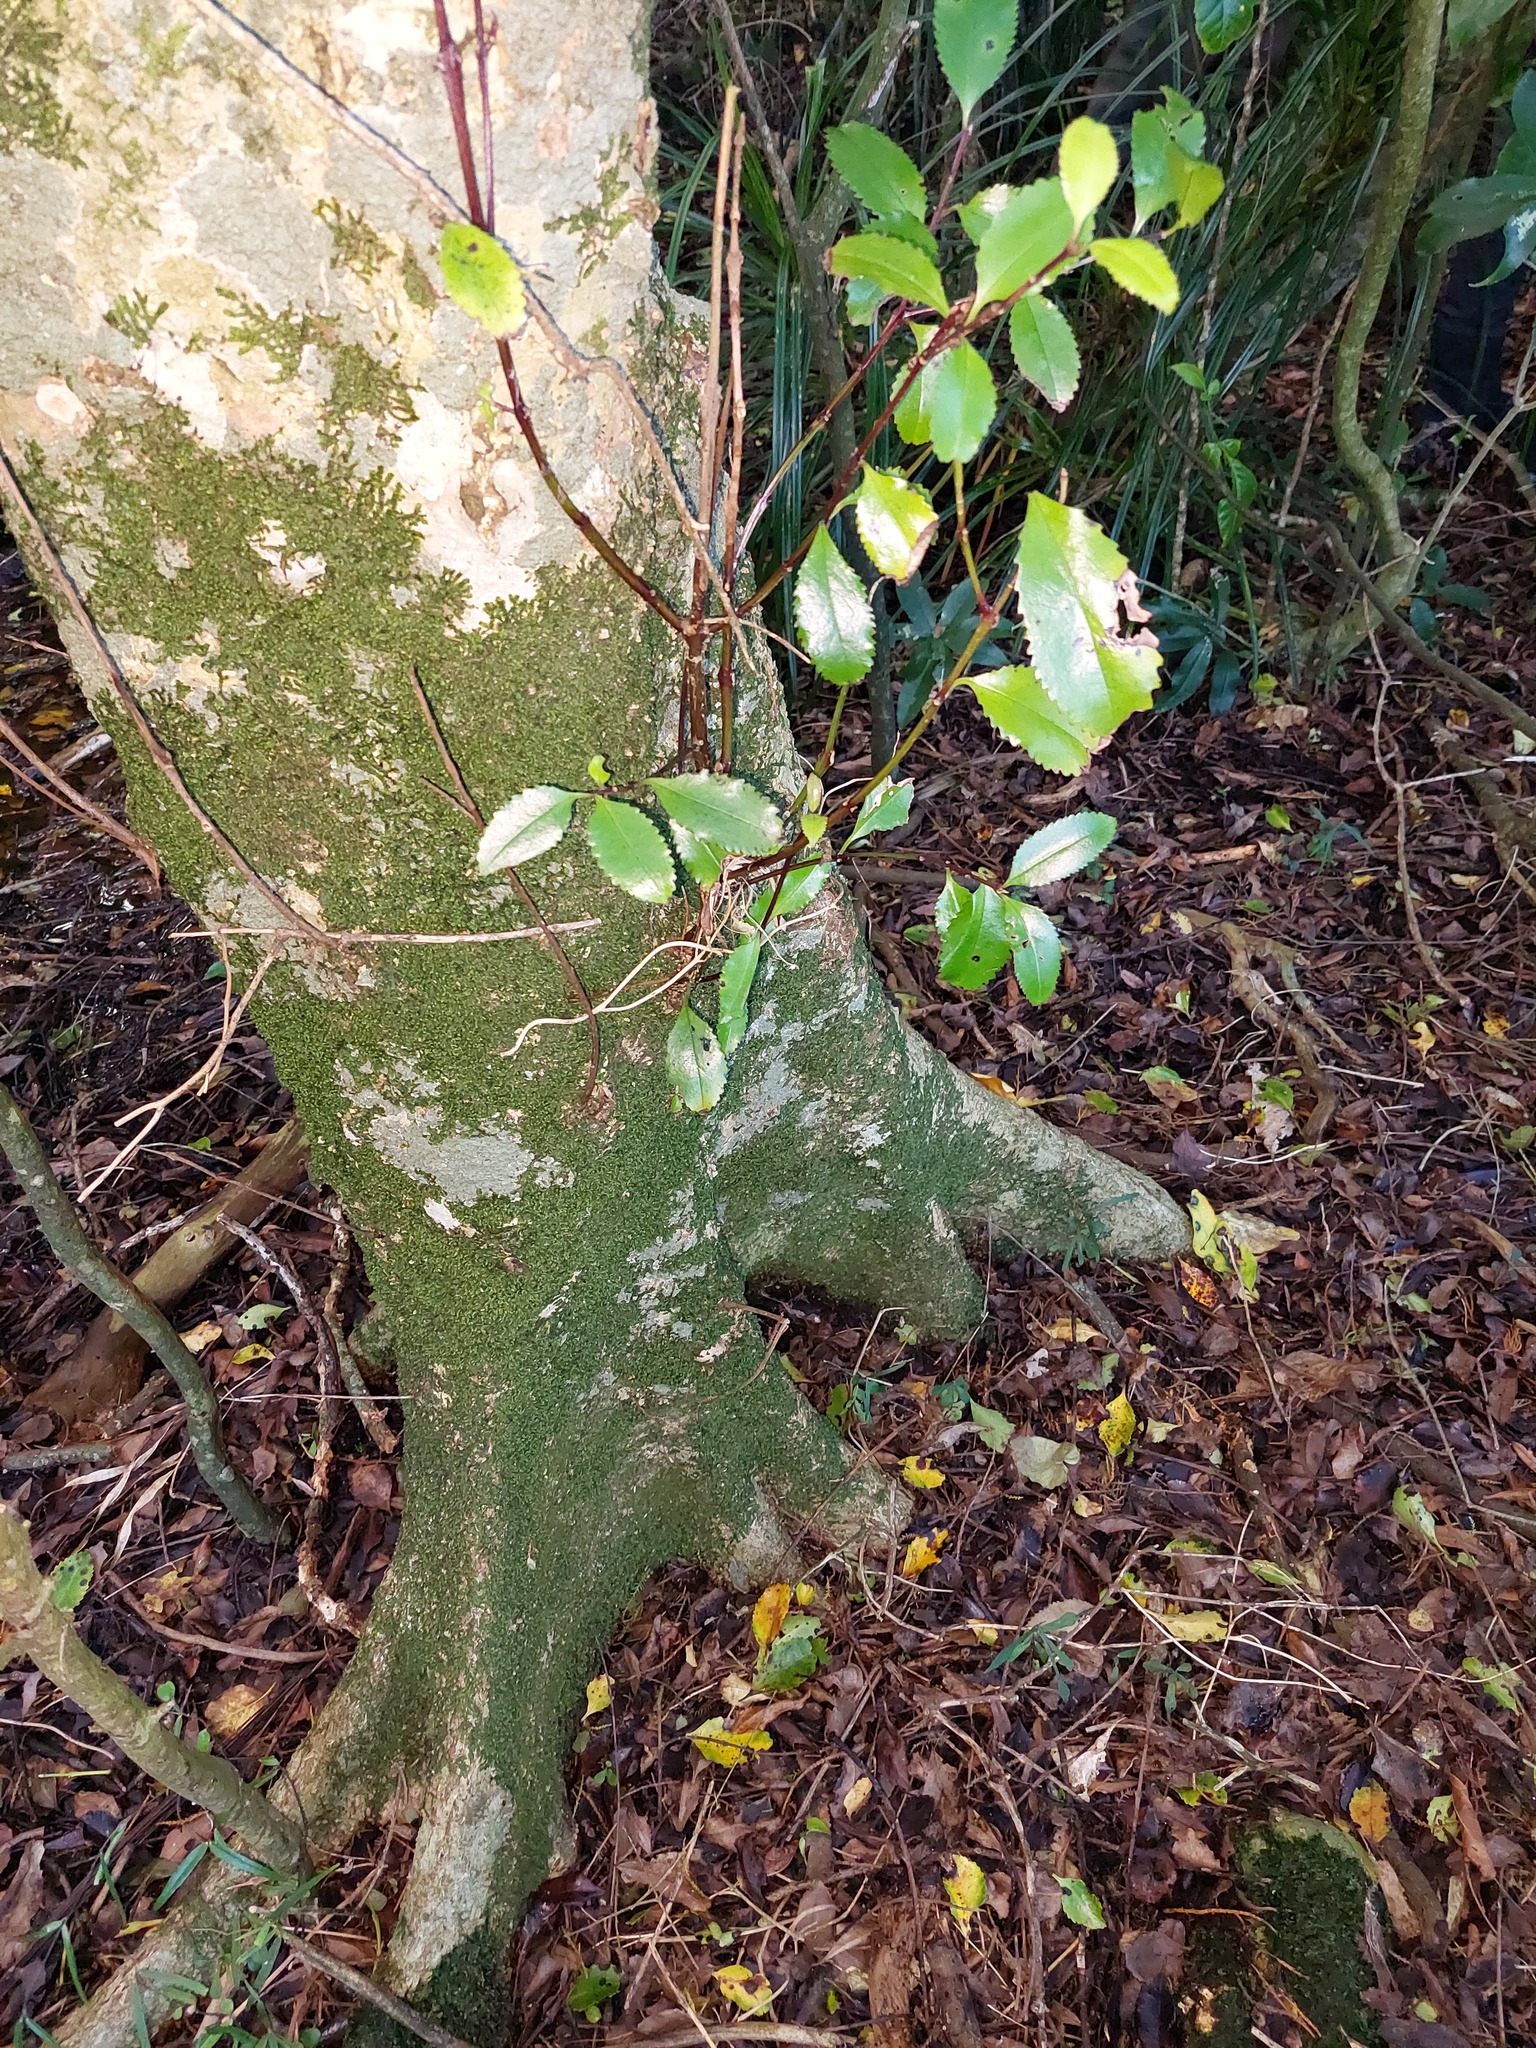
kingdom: Plantae
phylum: Tracheophyta
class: Magnoliopsida
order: Laurales
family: Atherospermataceae
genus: Laurelia
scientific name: Laurelia novae-zelandiae
